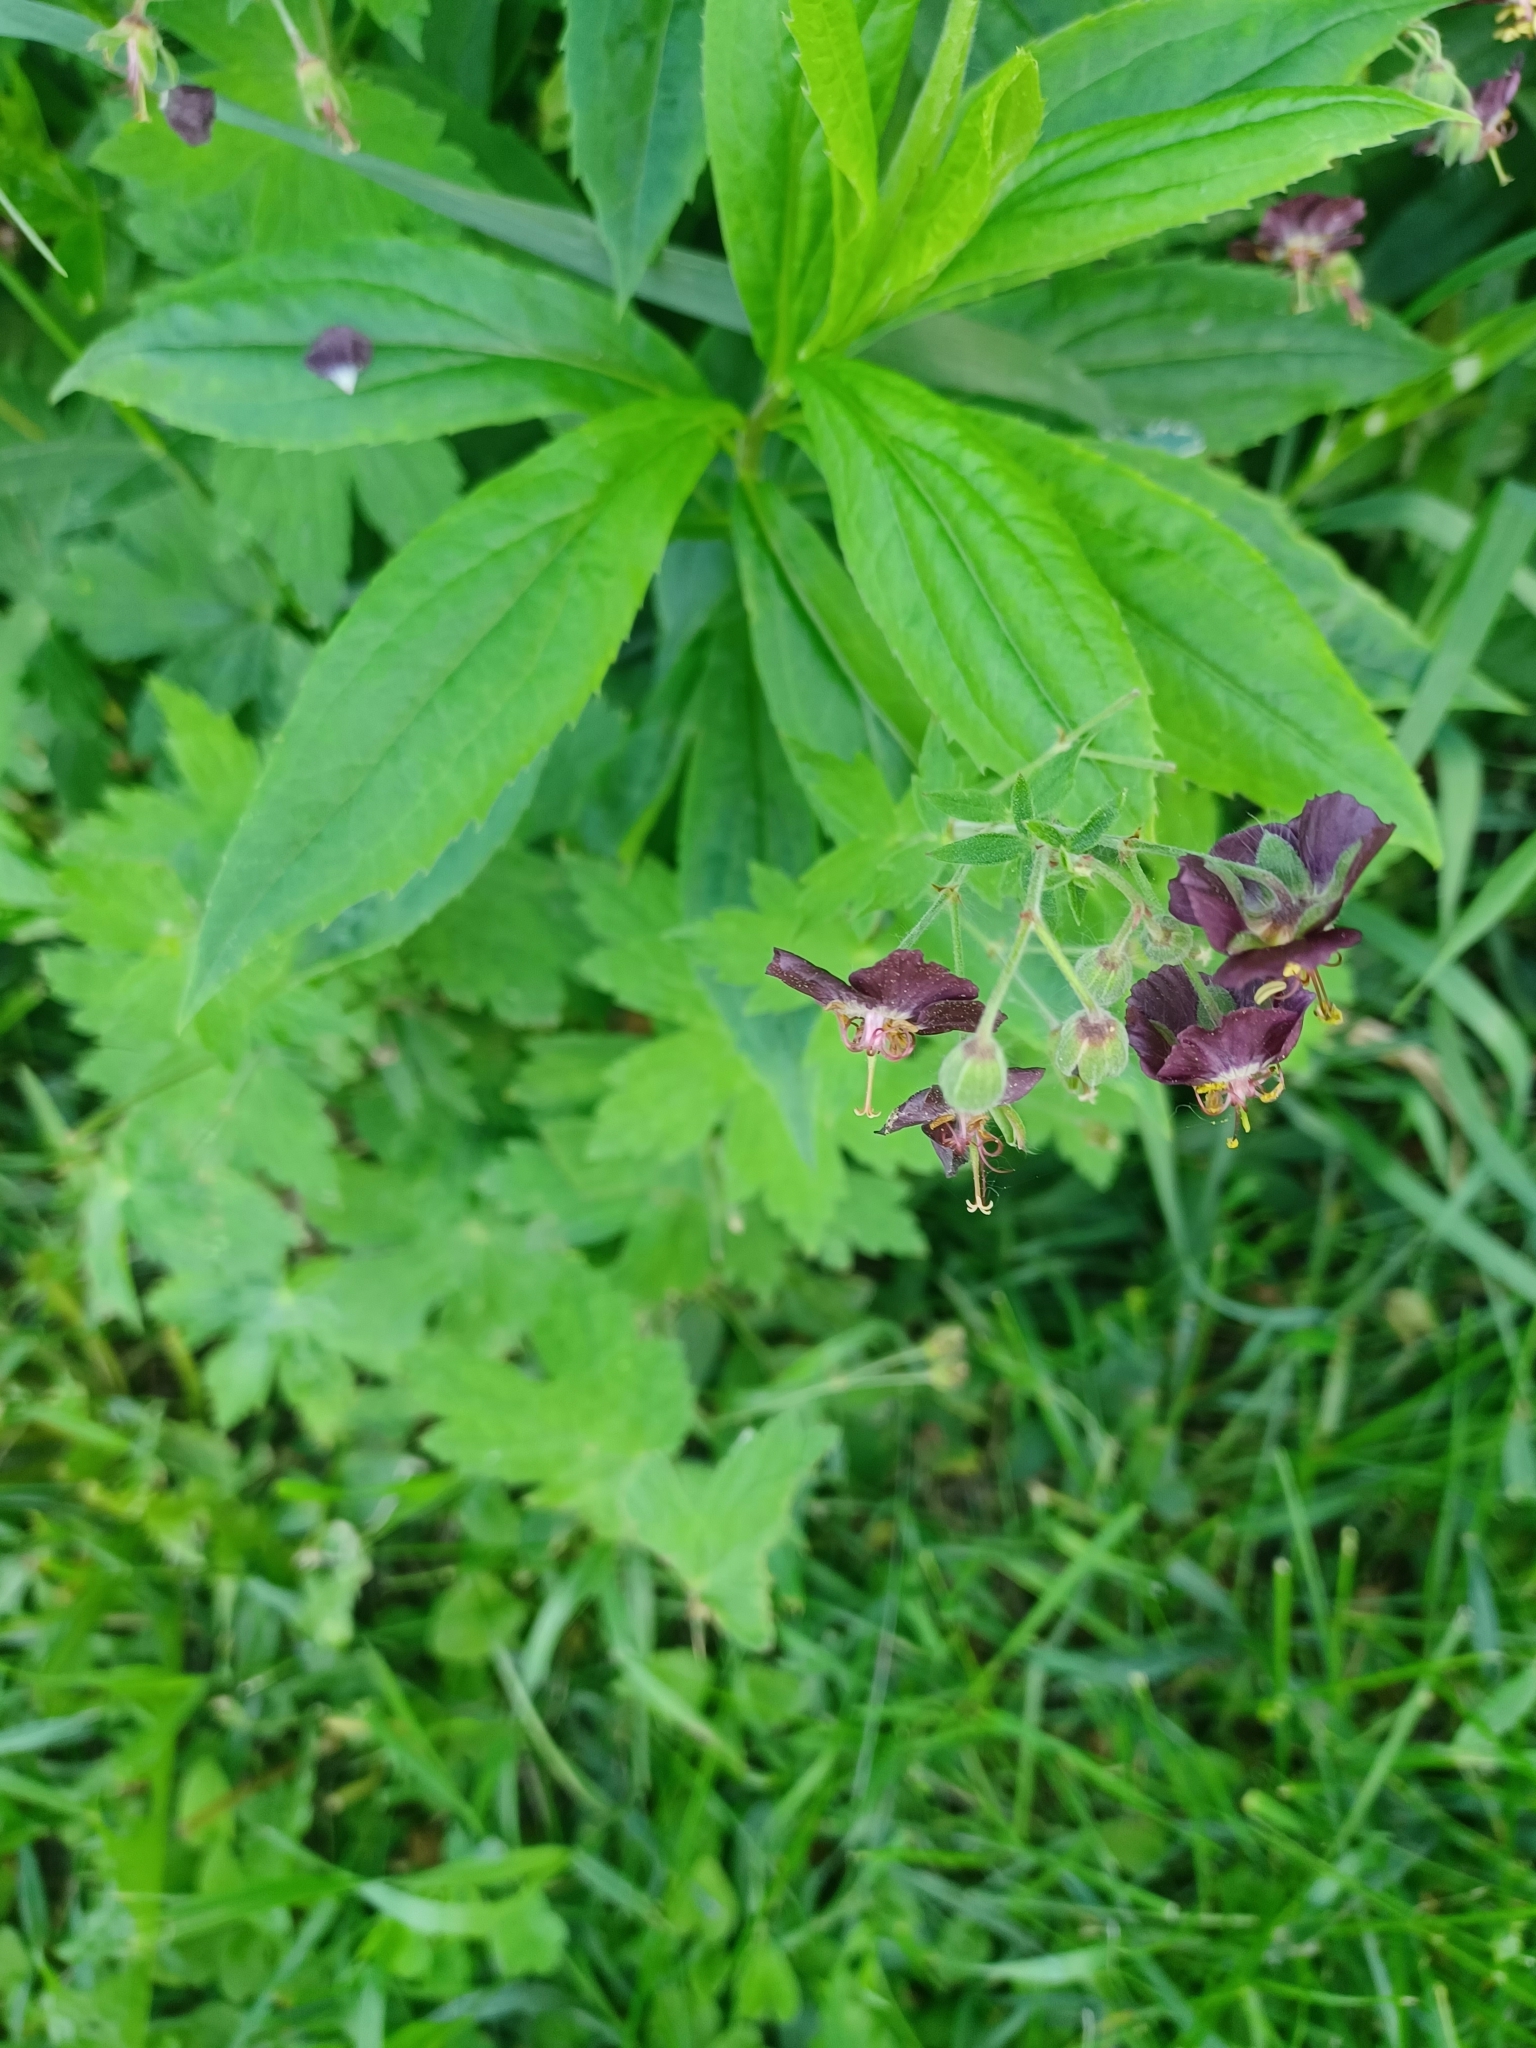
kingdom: Plantae
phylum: Tracheophyta
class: Magnoliopsida
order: Geraniales
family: Geraniaceae
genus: Geranium
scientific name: Geranium phaeum
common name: Dusky crane's-bill
